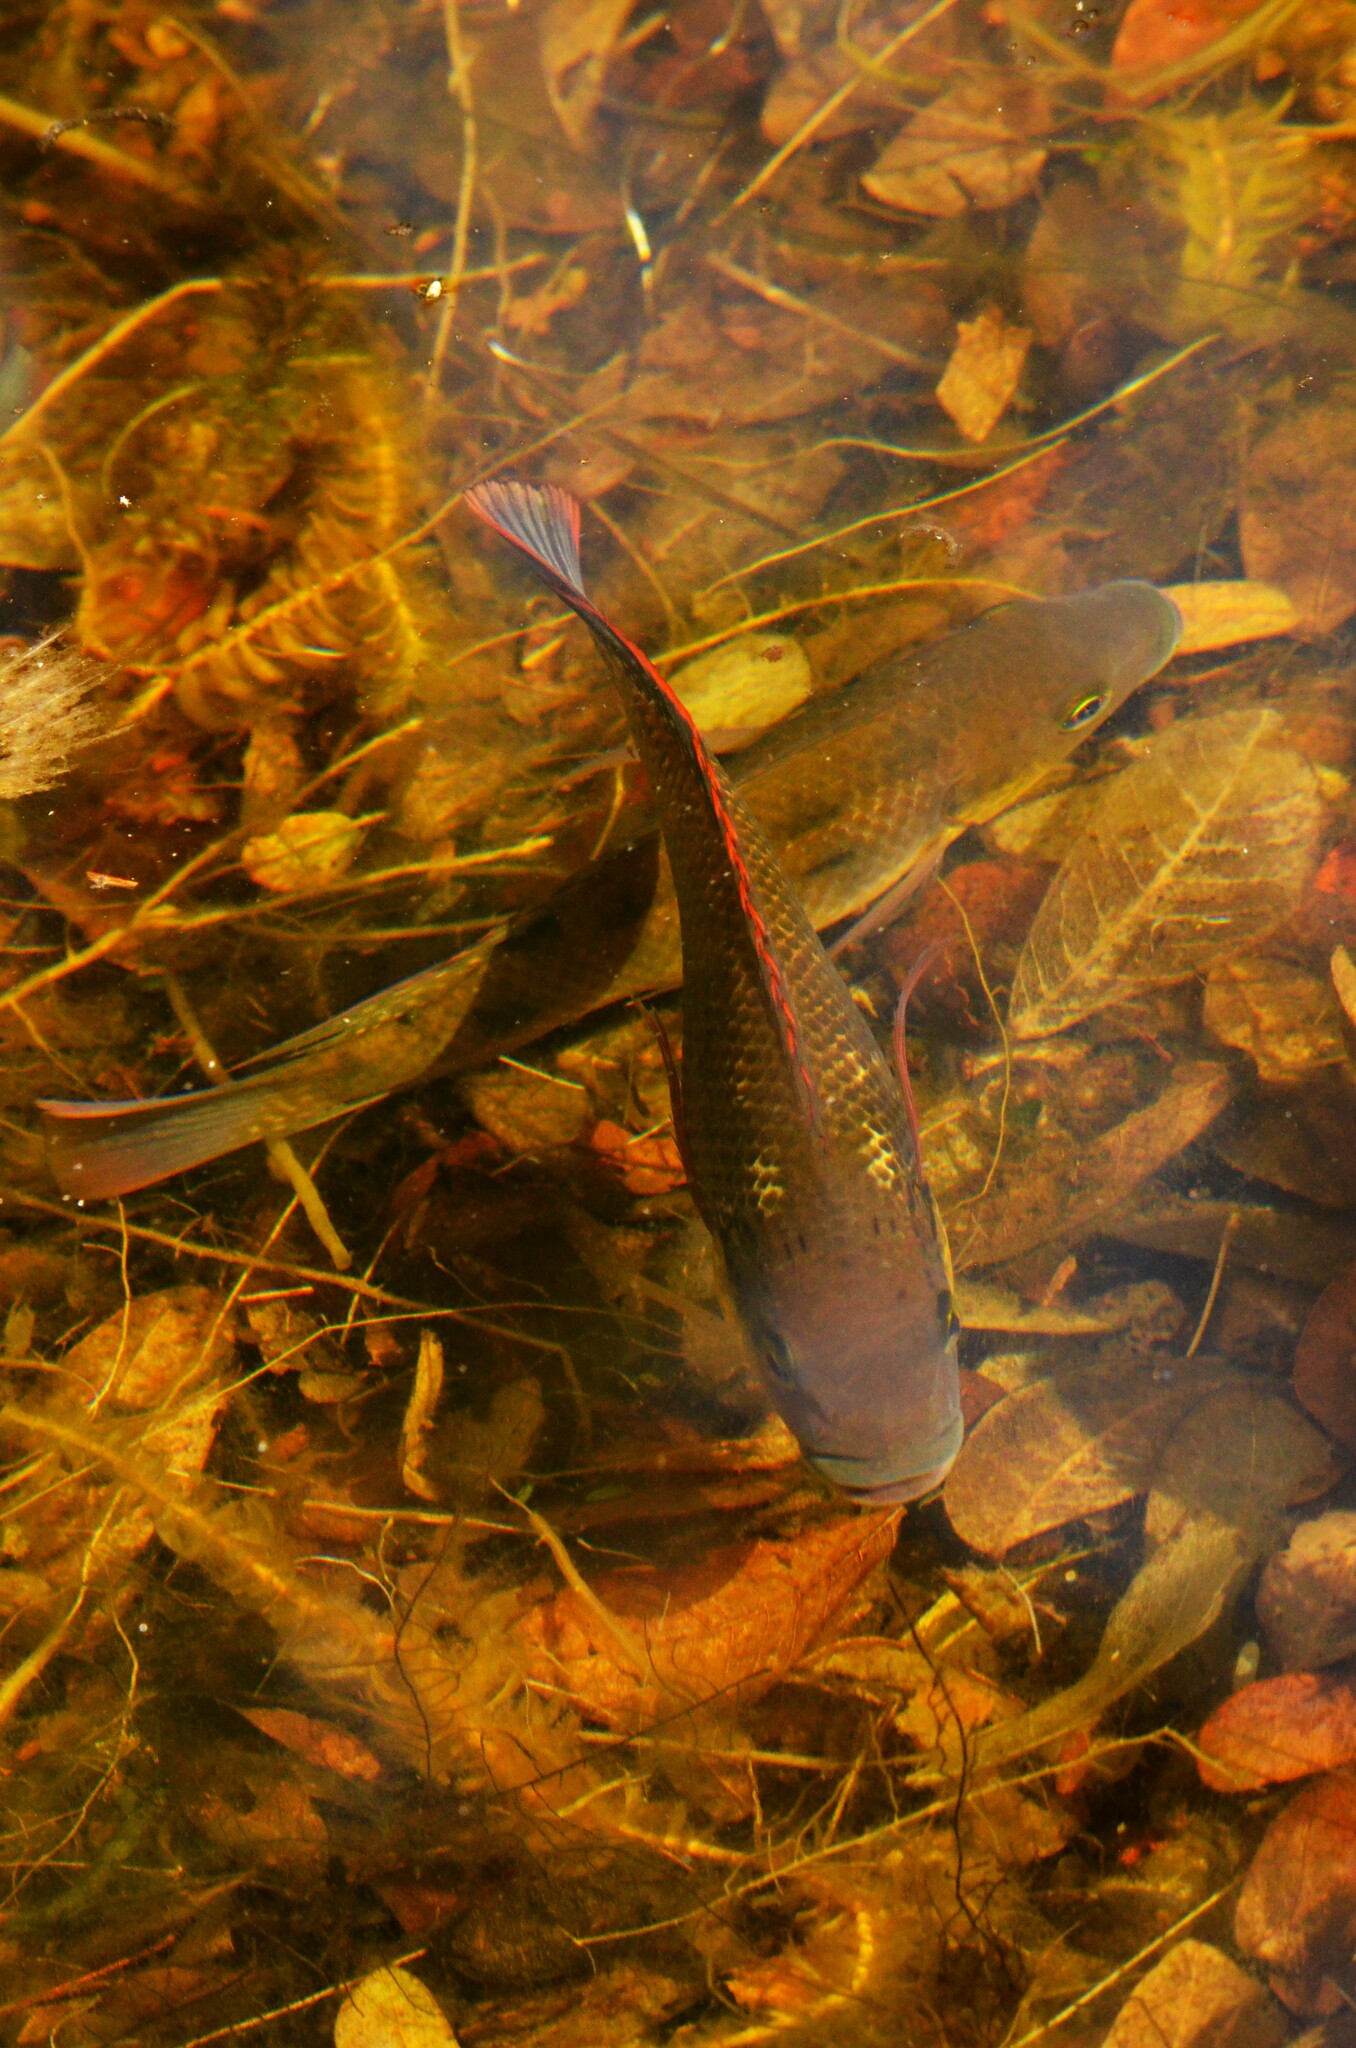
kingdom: Animalia
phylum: Chordata
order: Perciformes
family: Cichlidae
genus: Oreochromis
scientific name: Oreochromis mossambicus
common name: Mozambique tilapia
